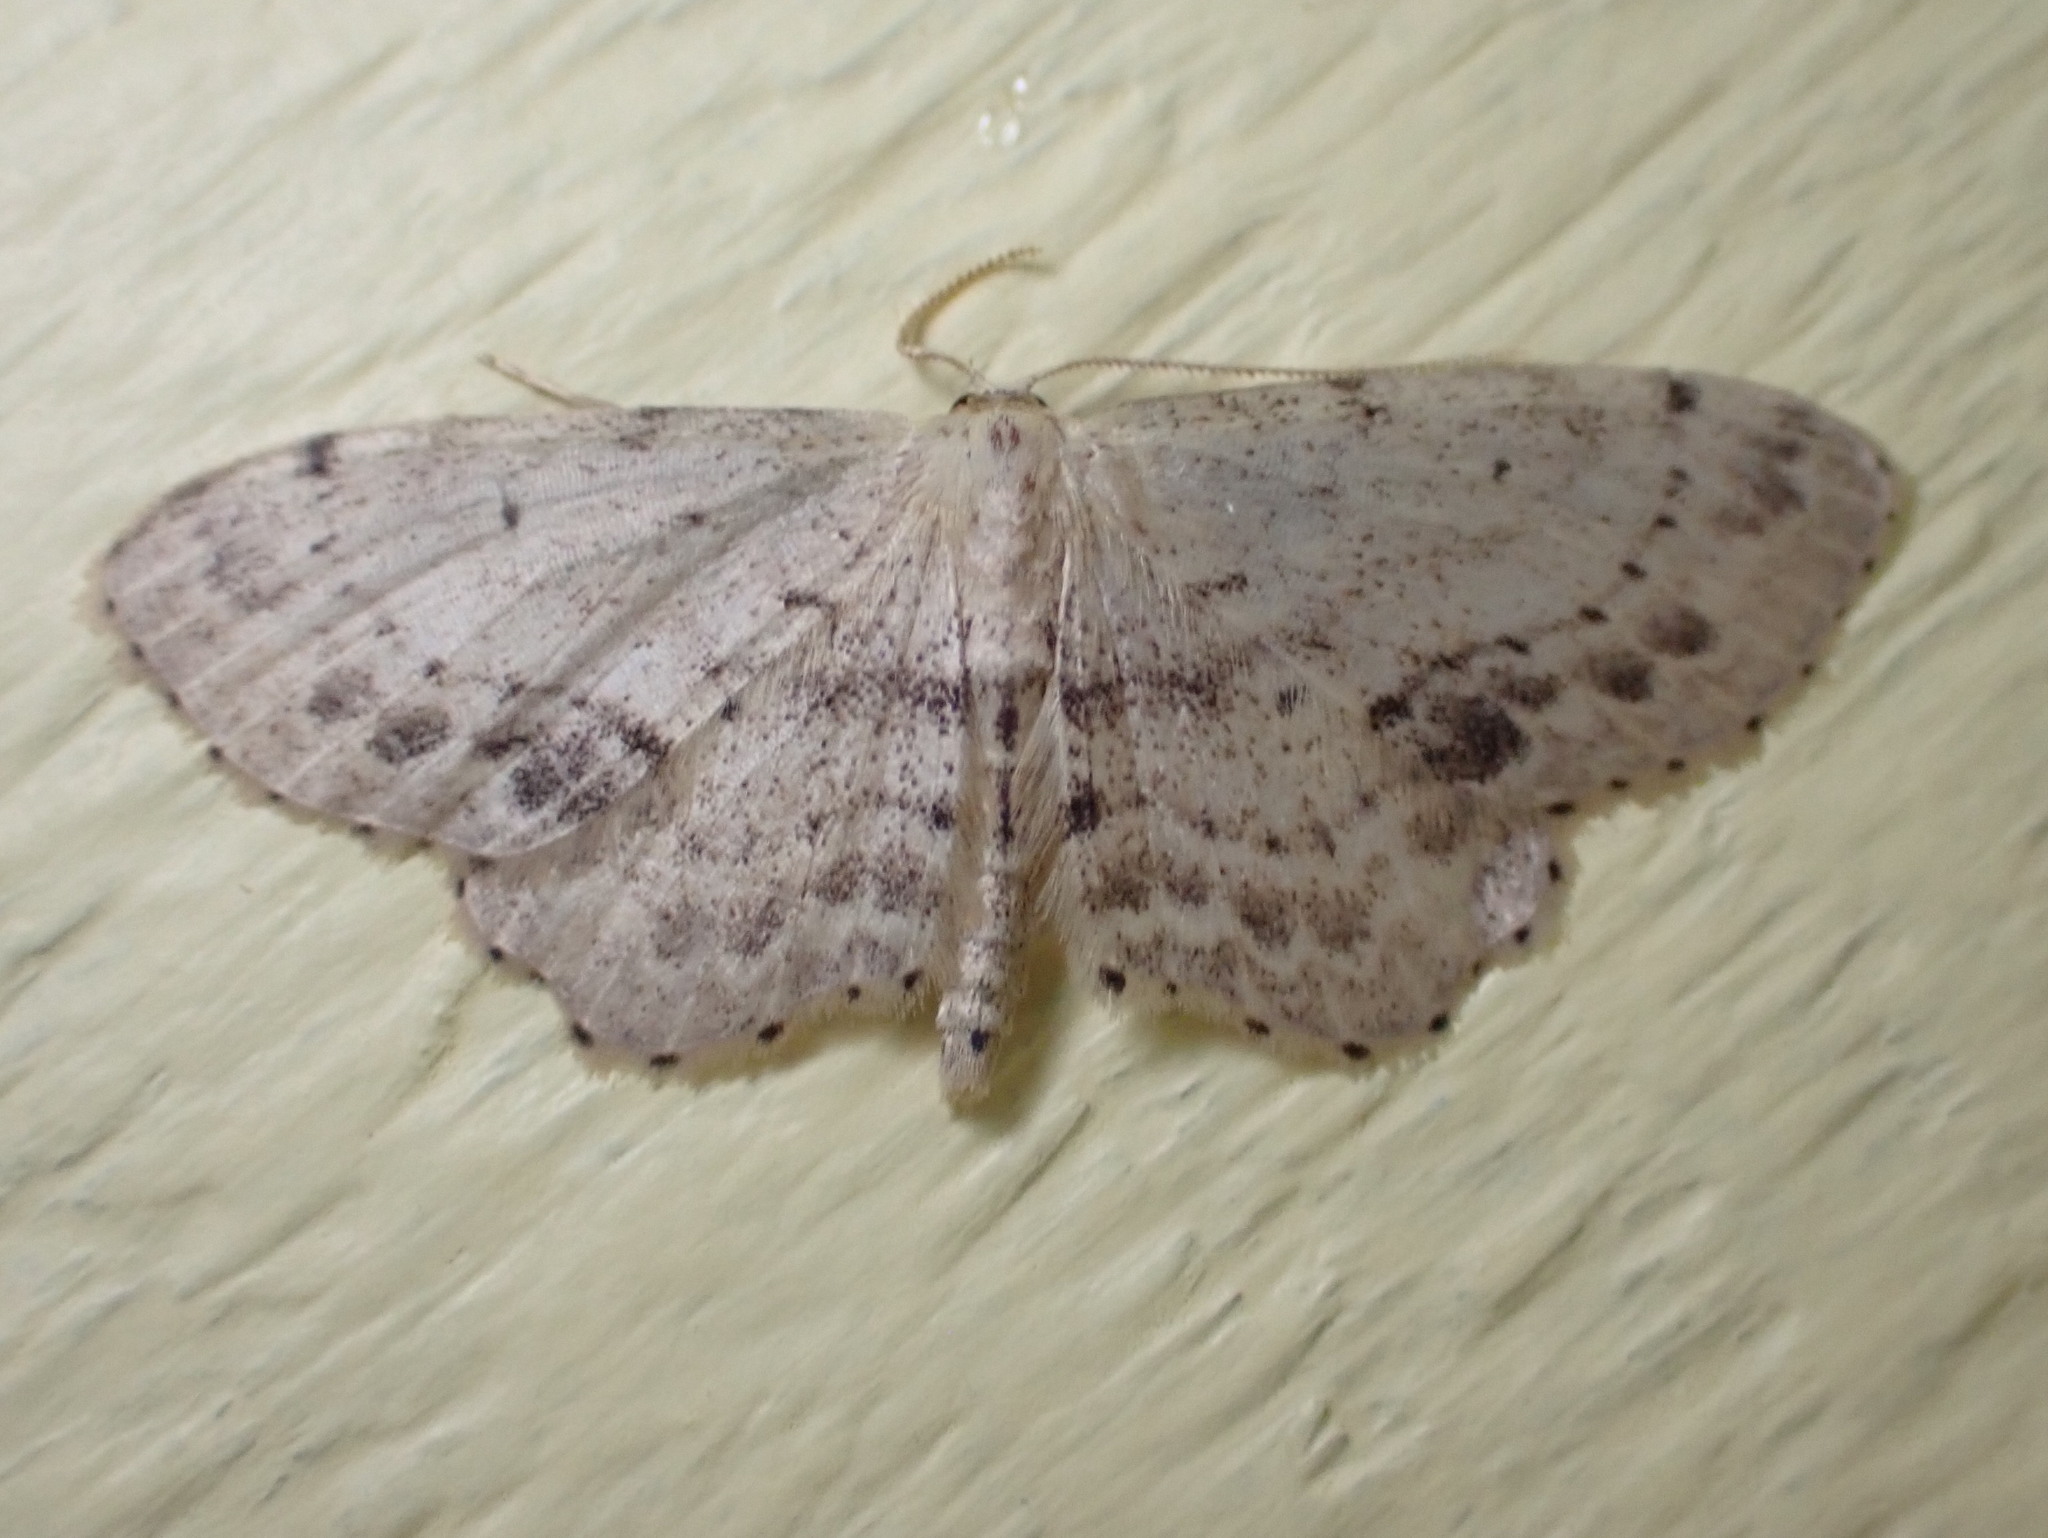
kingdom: Animalia
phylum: Arthropoda
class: Insecta
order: Lepidoptera
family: Geometridae
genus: Idaea
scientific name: Idaea dimidiata
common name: Single-dotted wave
